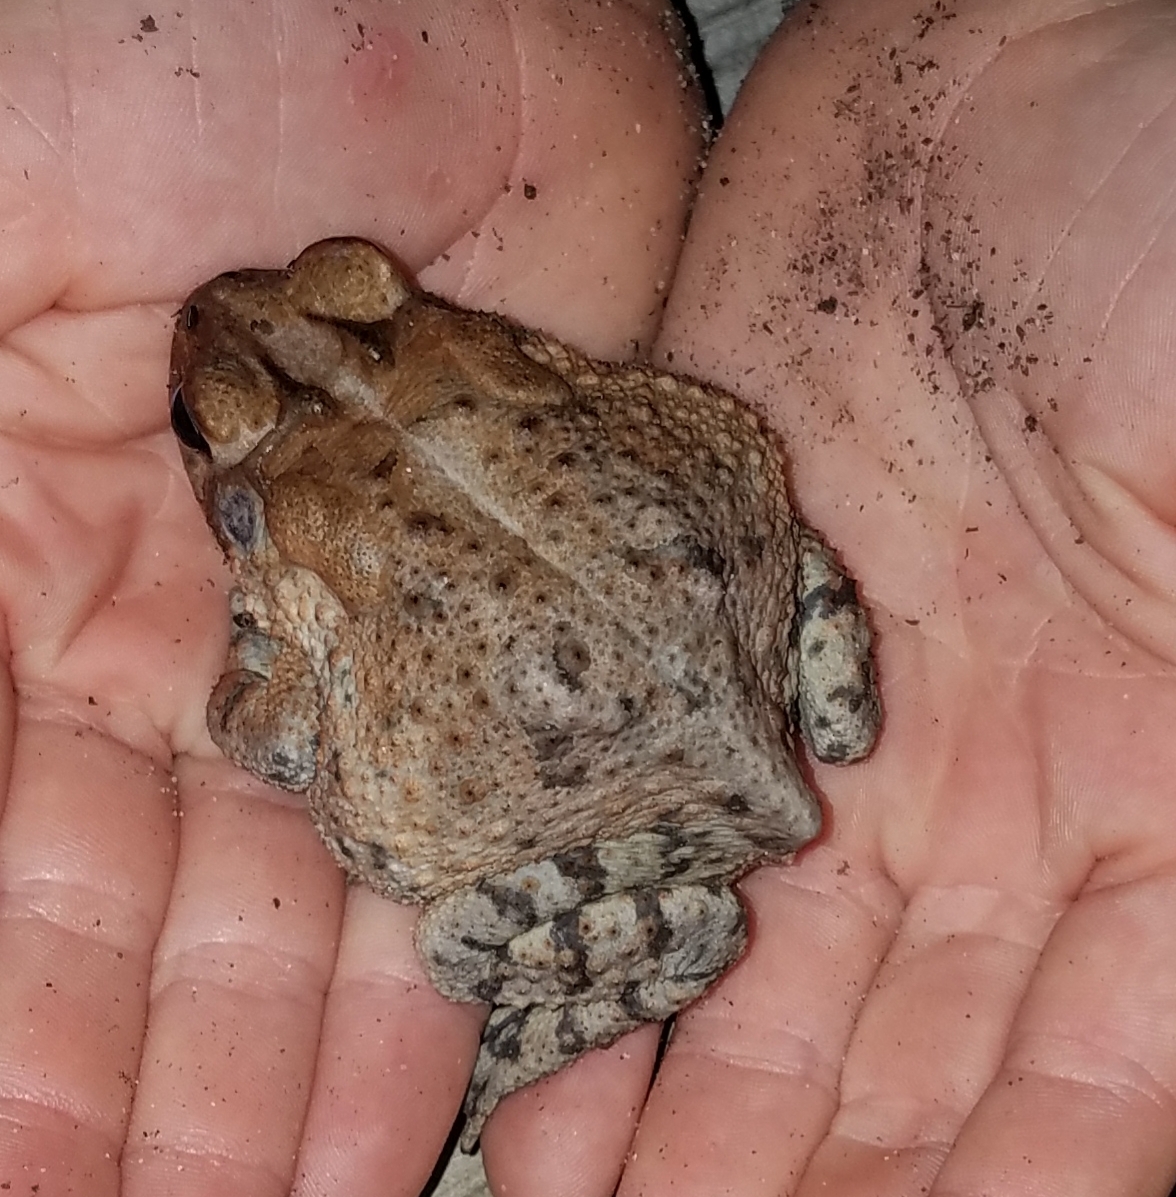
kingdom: Animalia
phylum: Chordata
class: Amphibia
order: Anura
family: Bufonidae
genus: Anaxyrus
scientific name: Anaxyrus terrestris
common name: Southern toad
